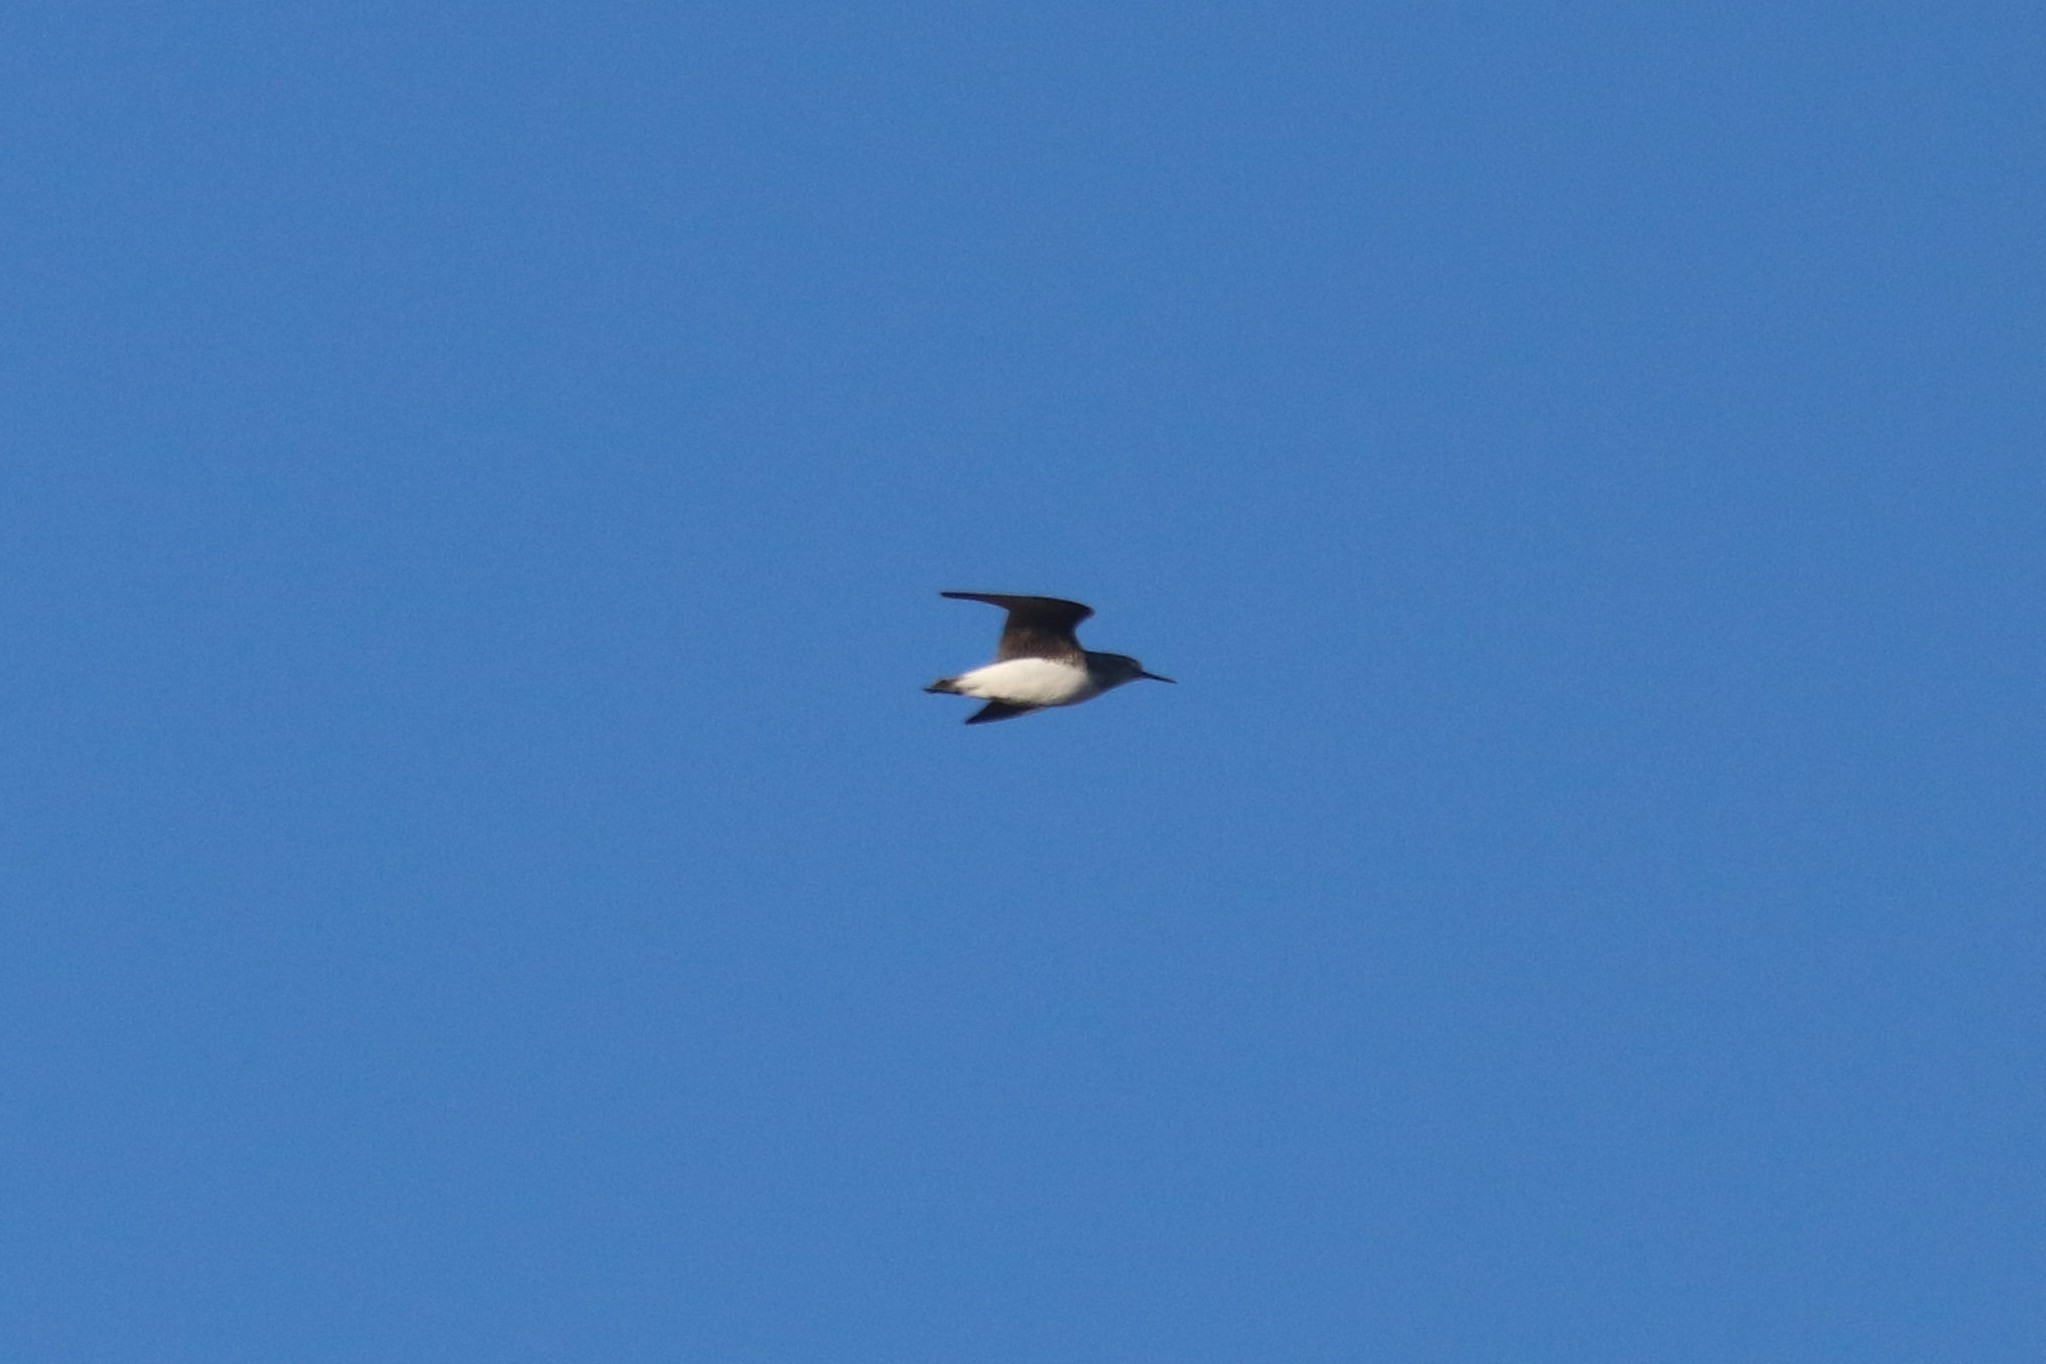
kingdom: Animalia
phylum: Chordata
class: Aves
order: Charadriiformes
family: Scolopacidae
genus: Tringa
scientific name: Tringa ochropus
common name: Green sandpiper
